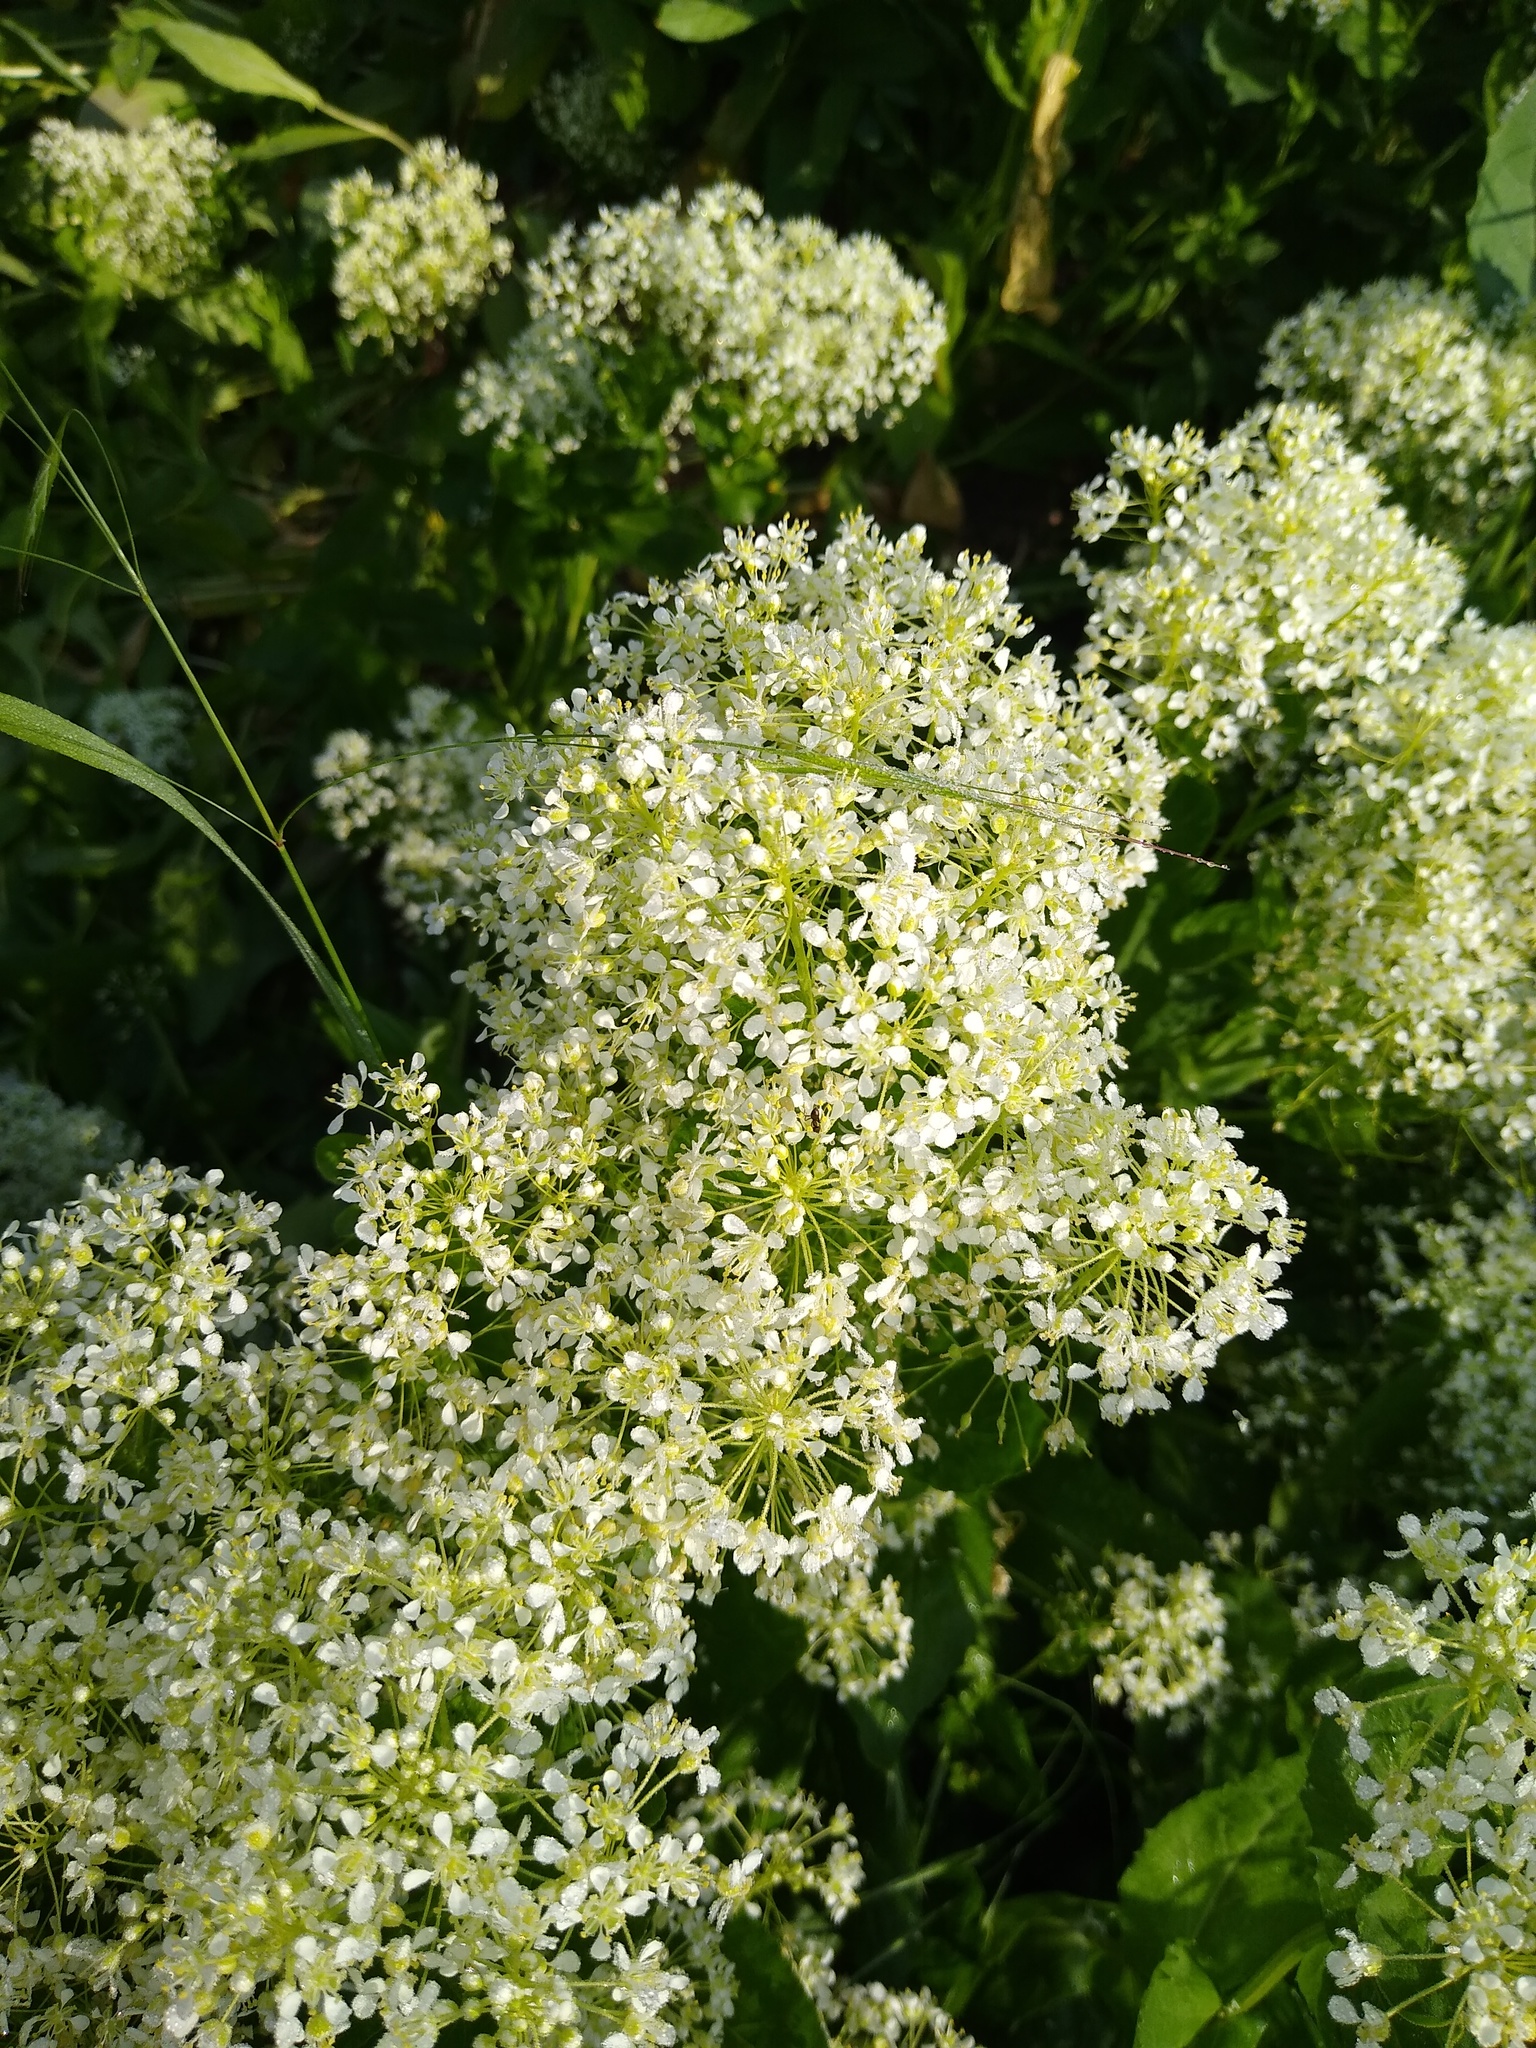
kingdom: Plantae
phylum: Tracheophyta
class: Magnoliopsida
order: Brassicales
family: Brassicaceae
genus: Lepidium
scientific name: Lepidium draba
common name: Hoary cress
